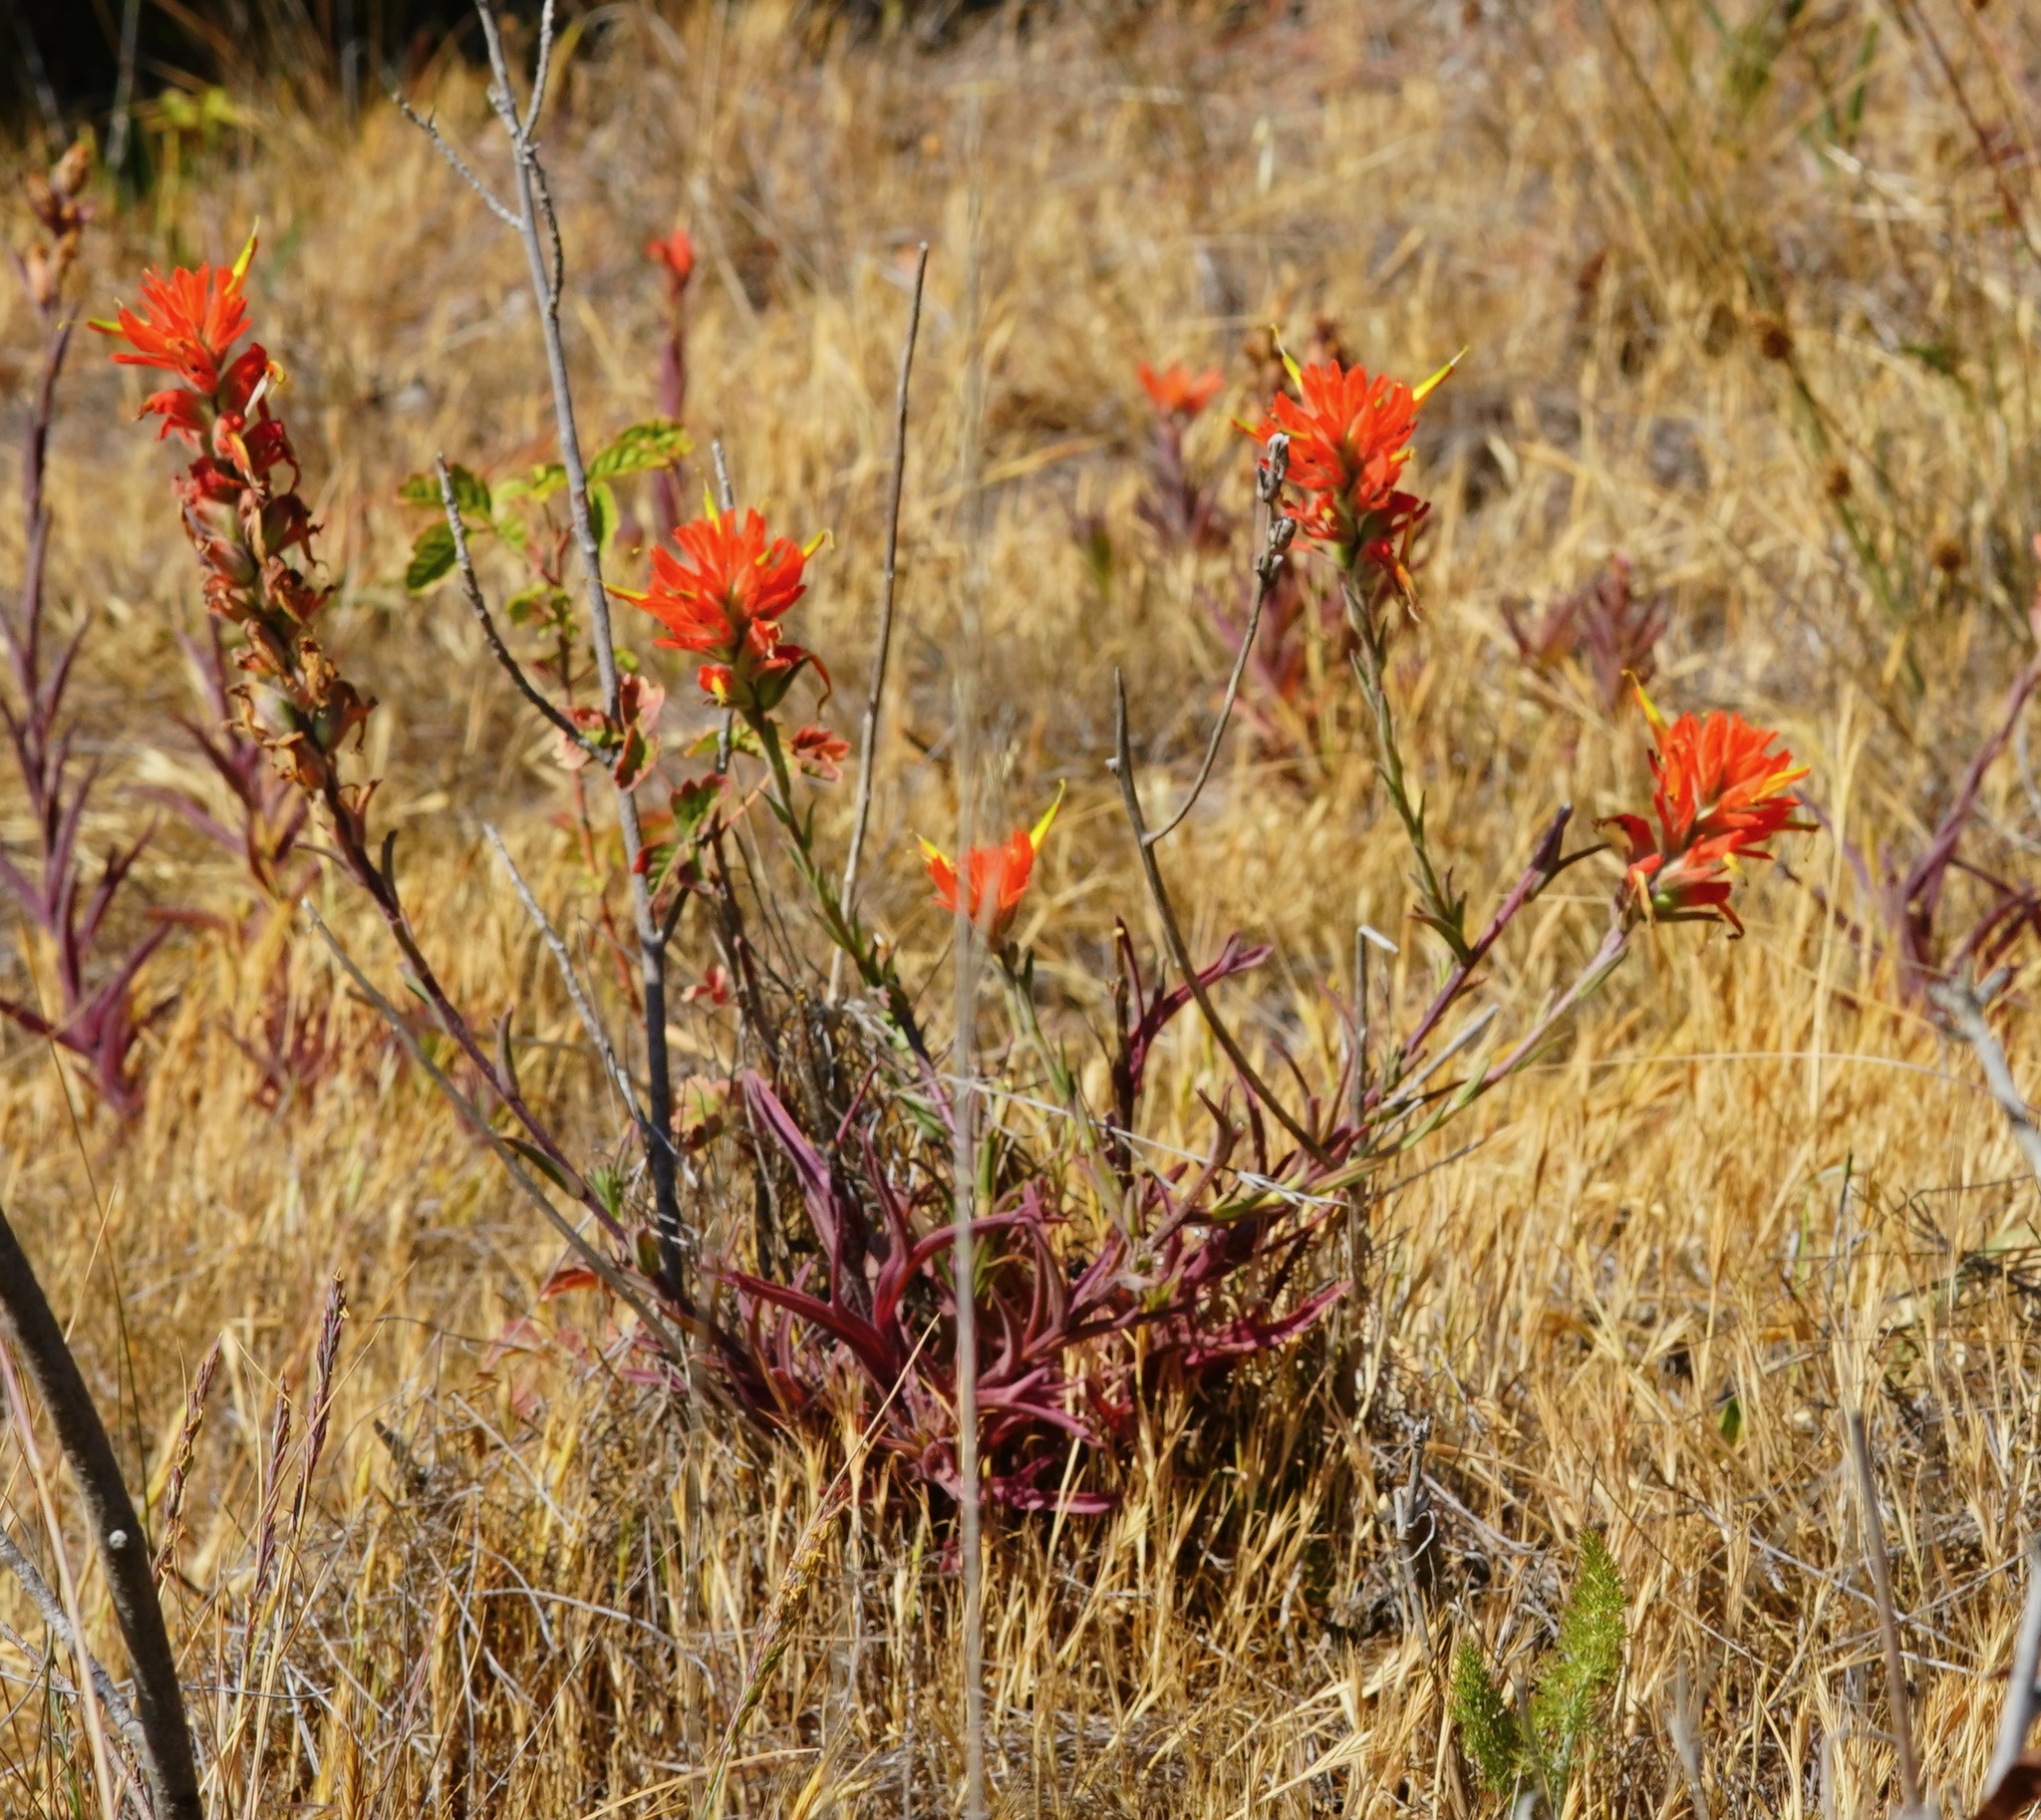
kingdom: Plantae
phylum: Tracheophyta
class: Magnoliopsida
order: Lamiales
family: Orobanchaceae
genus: Castilleja
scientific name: Castilleja subinclusa
